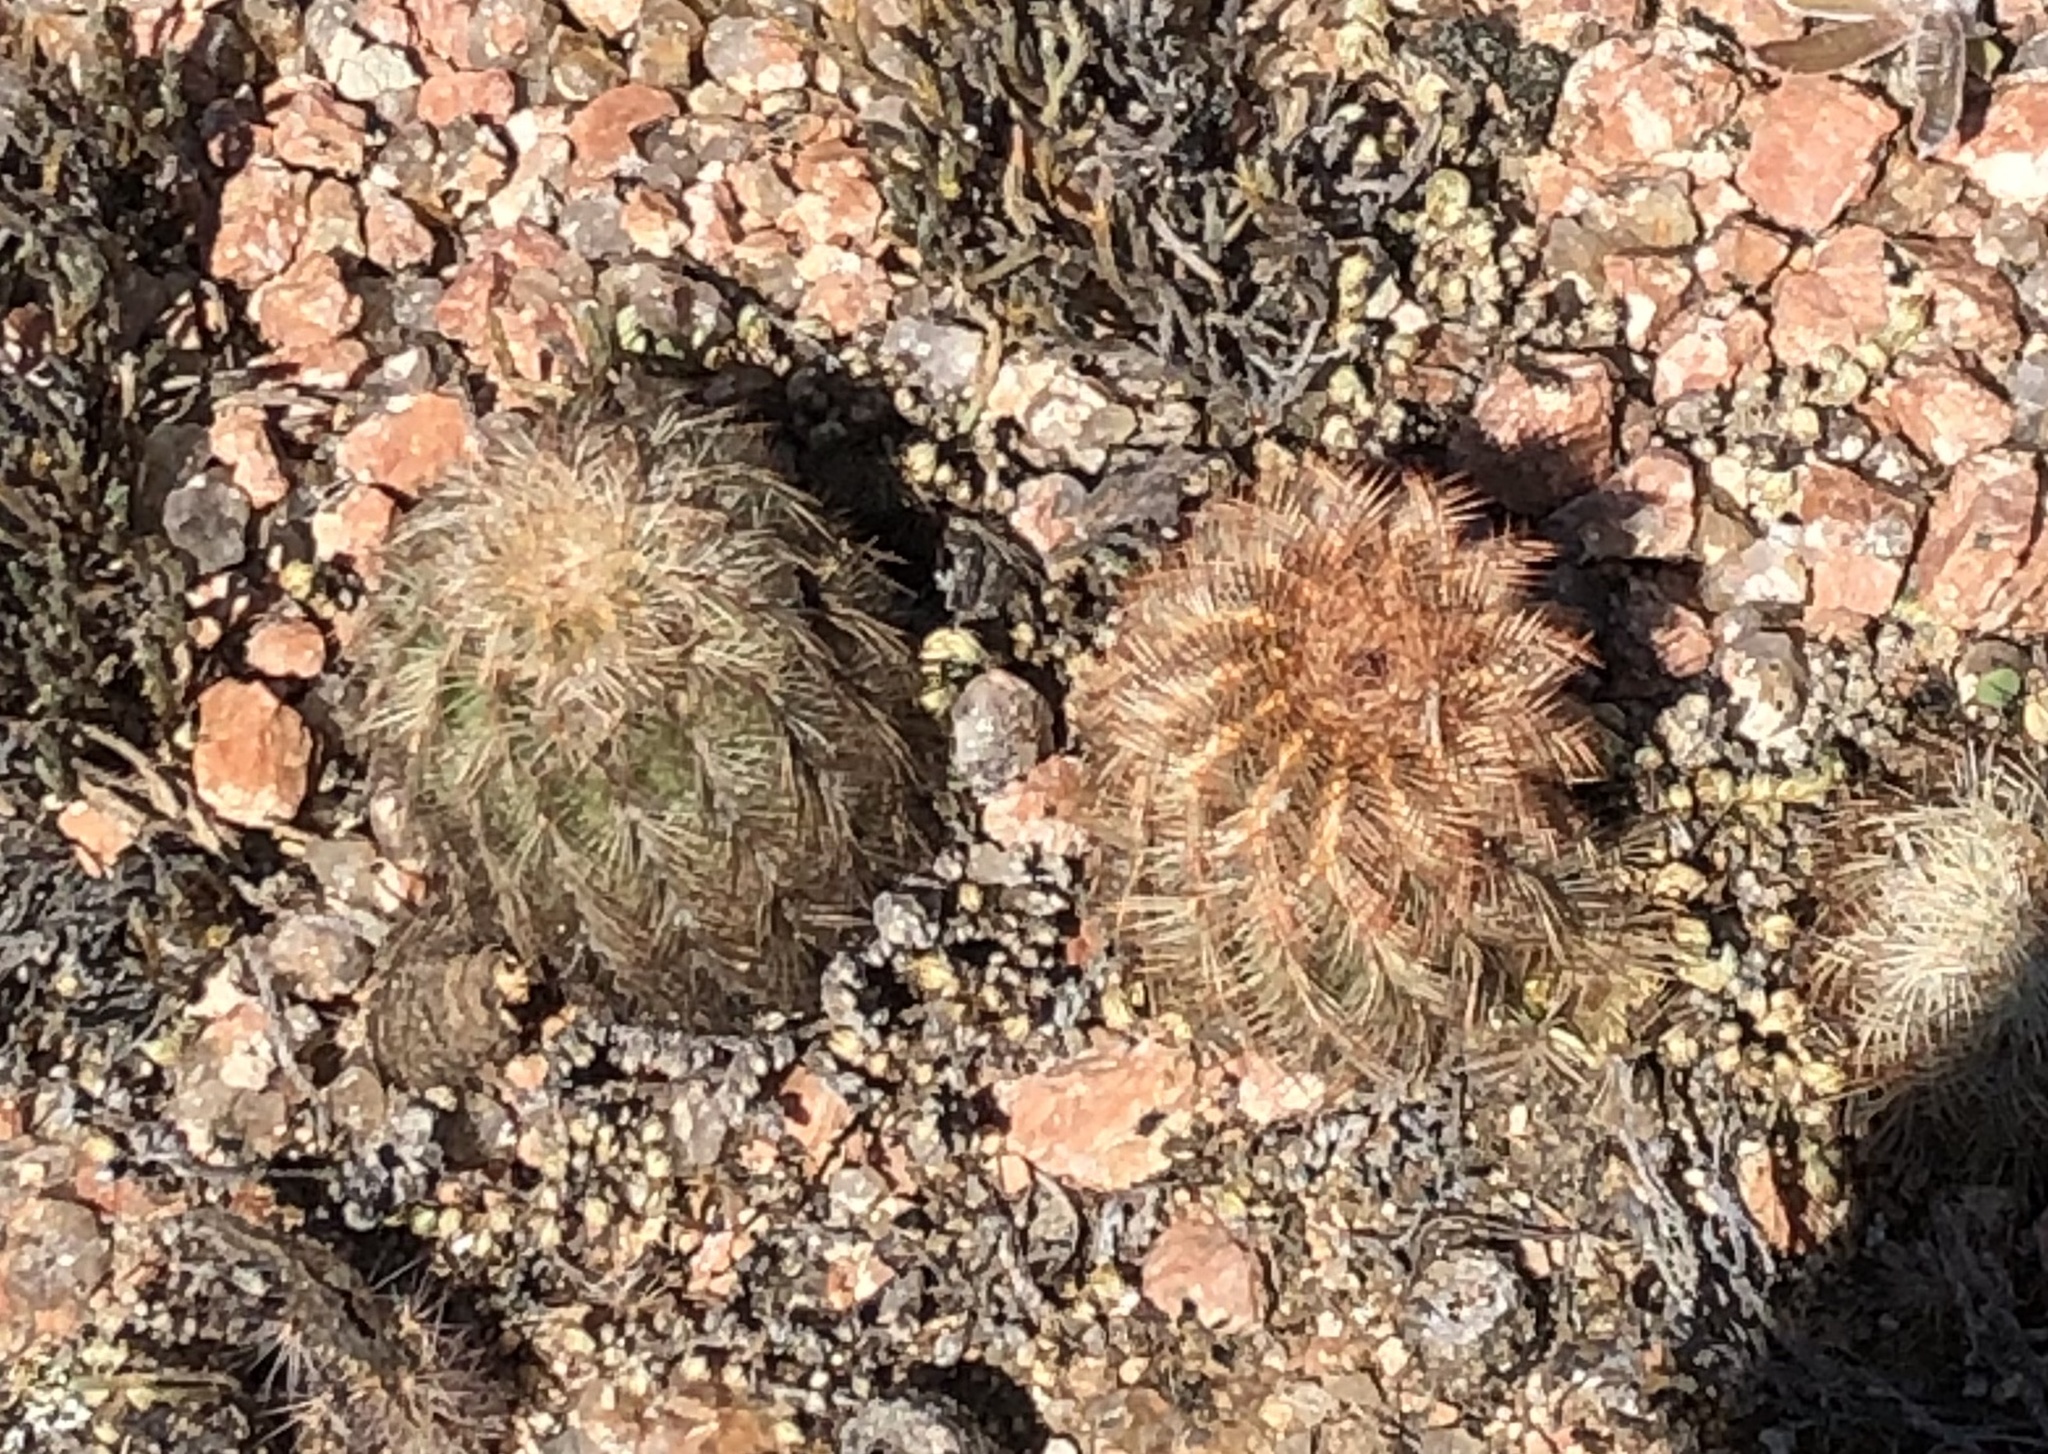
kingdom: Plantae
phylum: Tracheophyta
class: Magnoliopsida
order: Caryophyllales
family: Cactaceae
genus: Echinocereus
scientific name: Echinocereus reichenbachii
